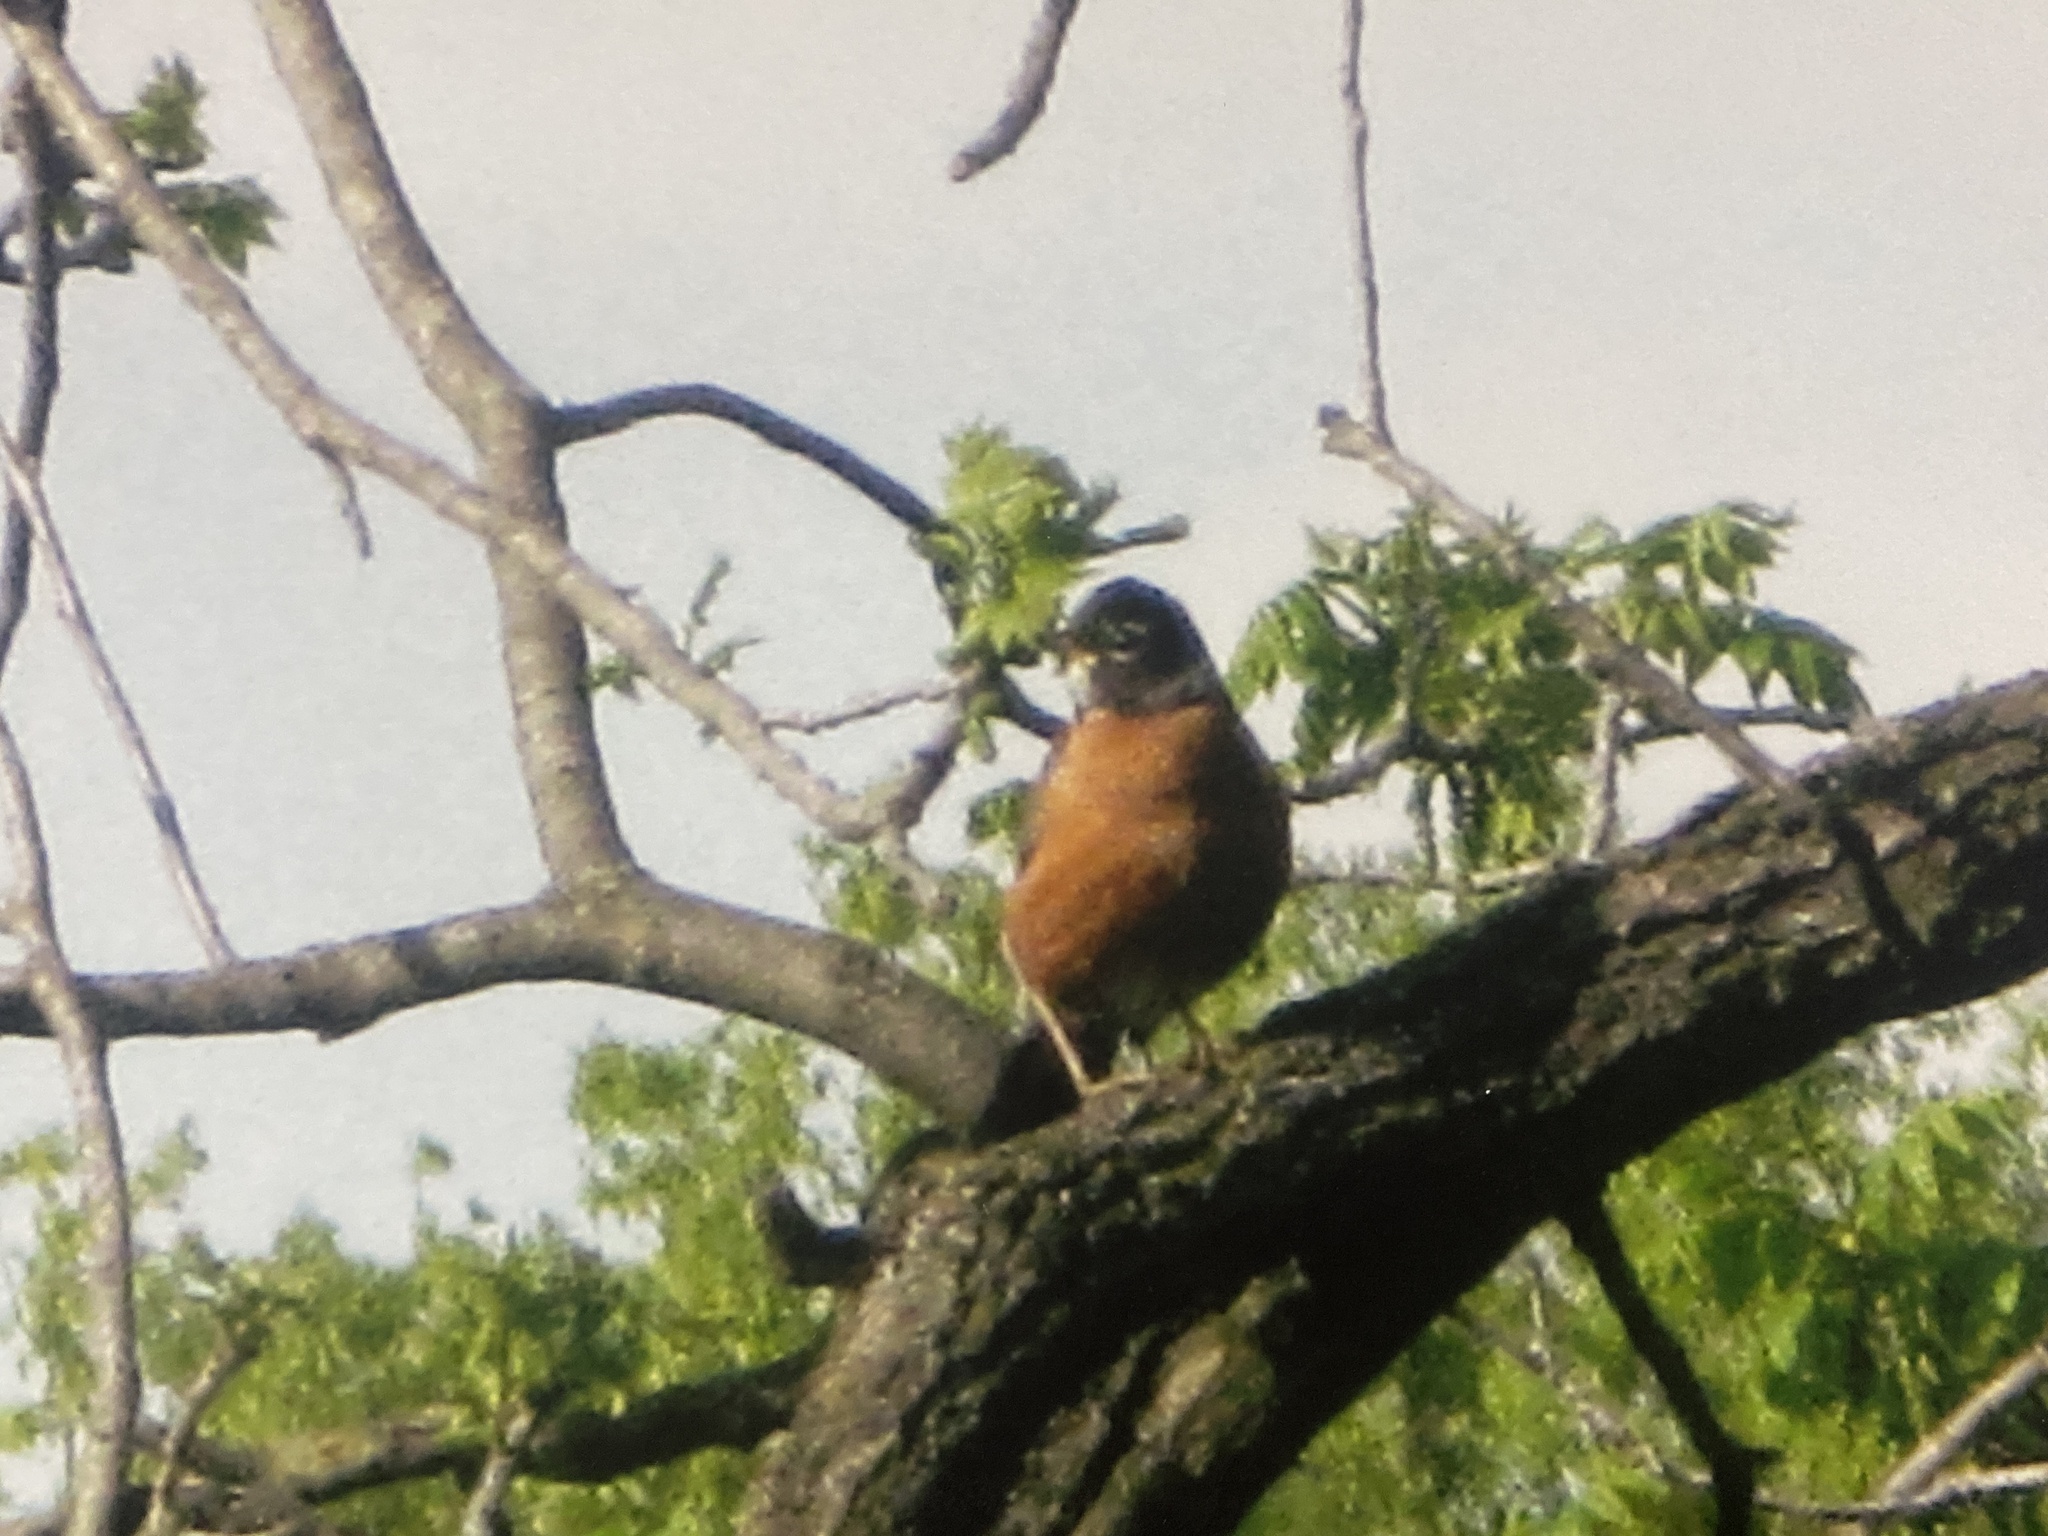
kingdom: Animalia
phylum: Chordata
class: Aves
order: Passeriformes
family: Turdidae
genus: Turdus
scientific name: Turdus migratorius
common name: American robin
